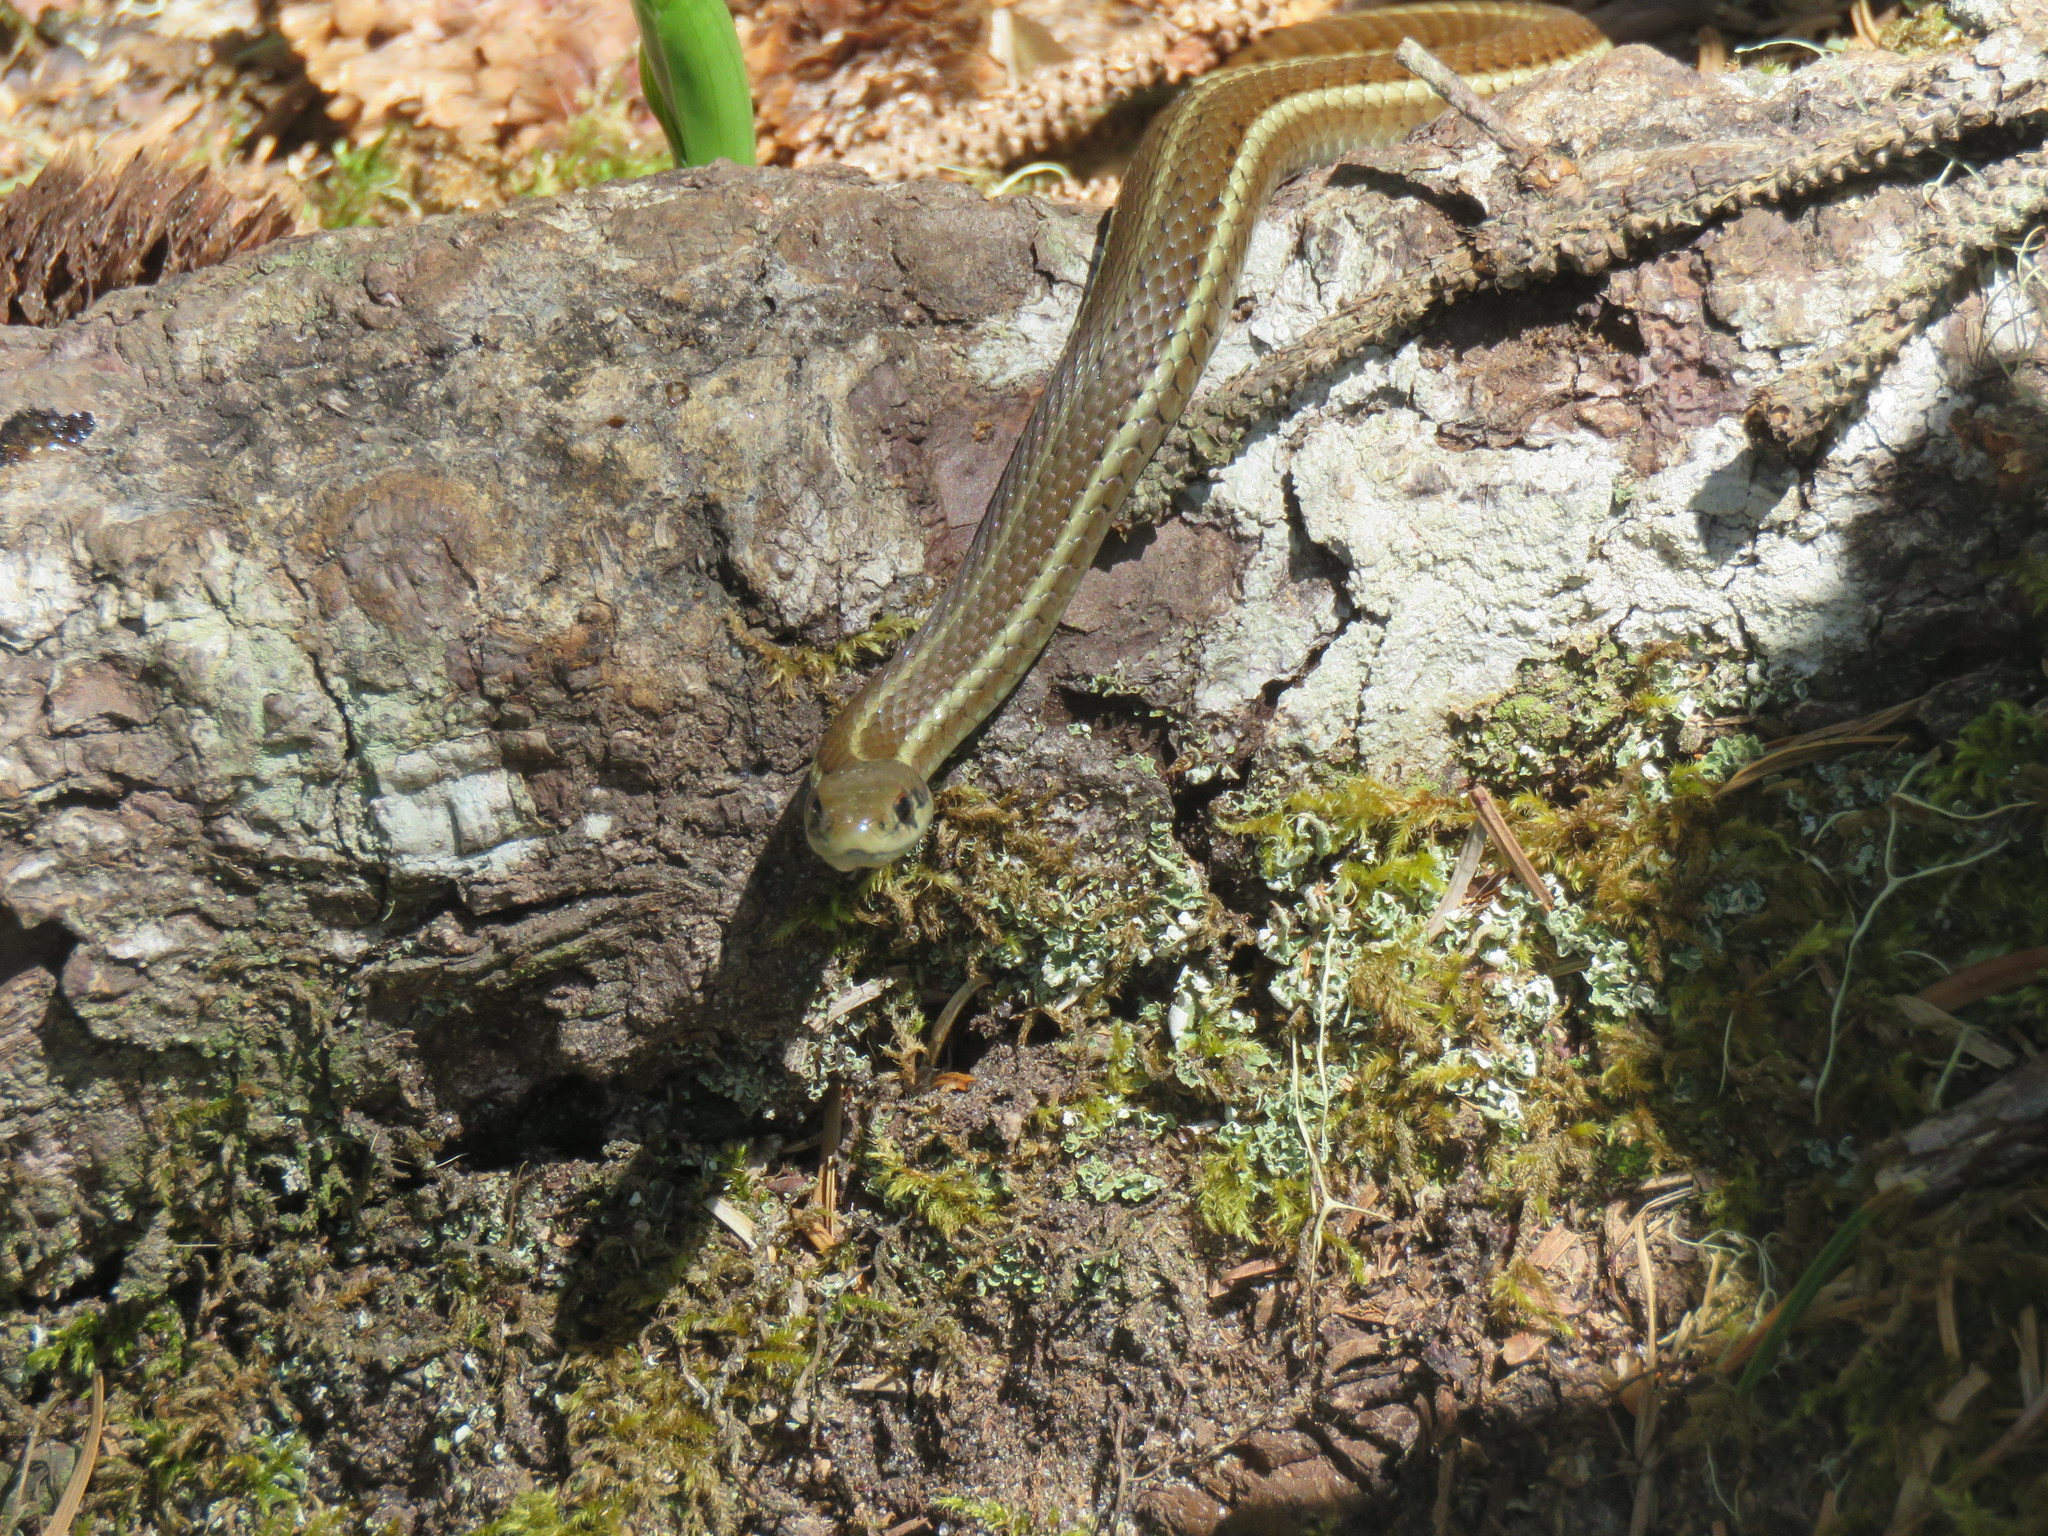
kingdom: Animalia
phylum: Chordata
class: Squamata
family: Colubridae
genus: Thamnophis
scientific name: Thamnophis ordinoides
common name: Northwestern garter snake
